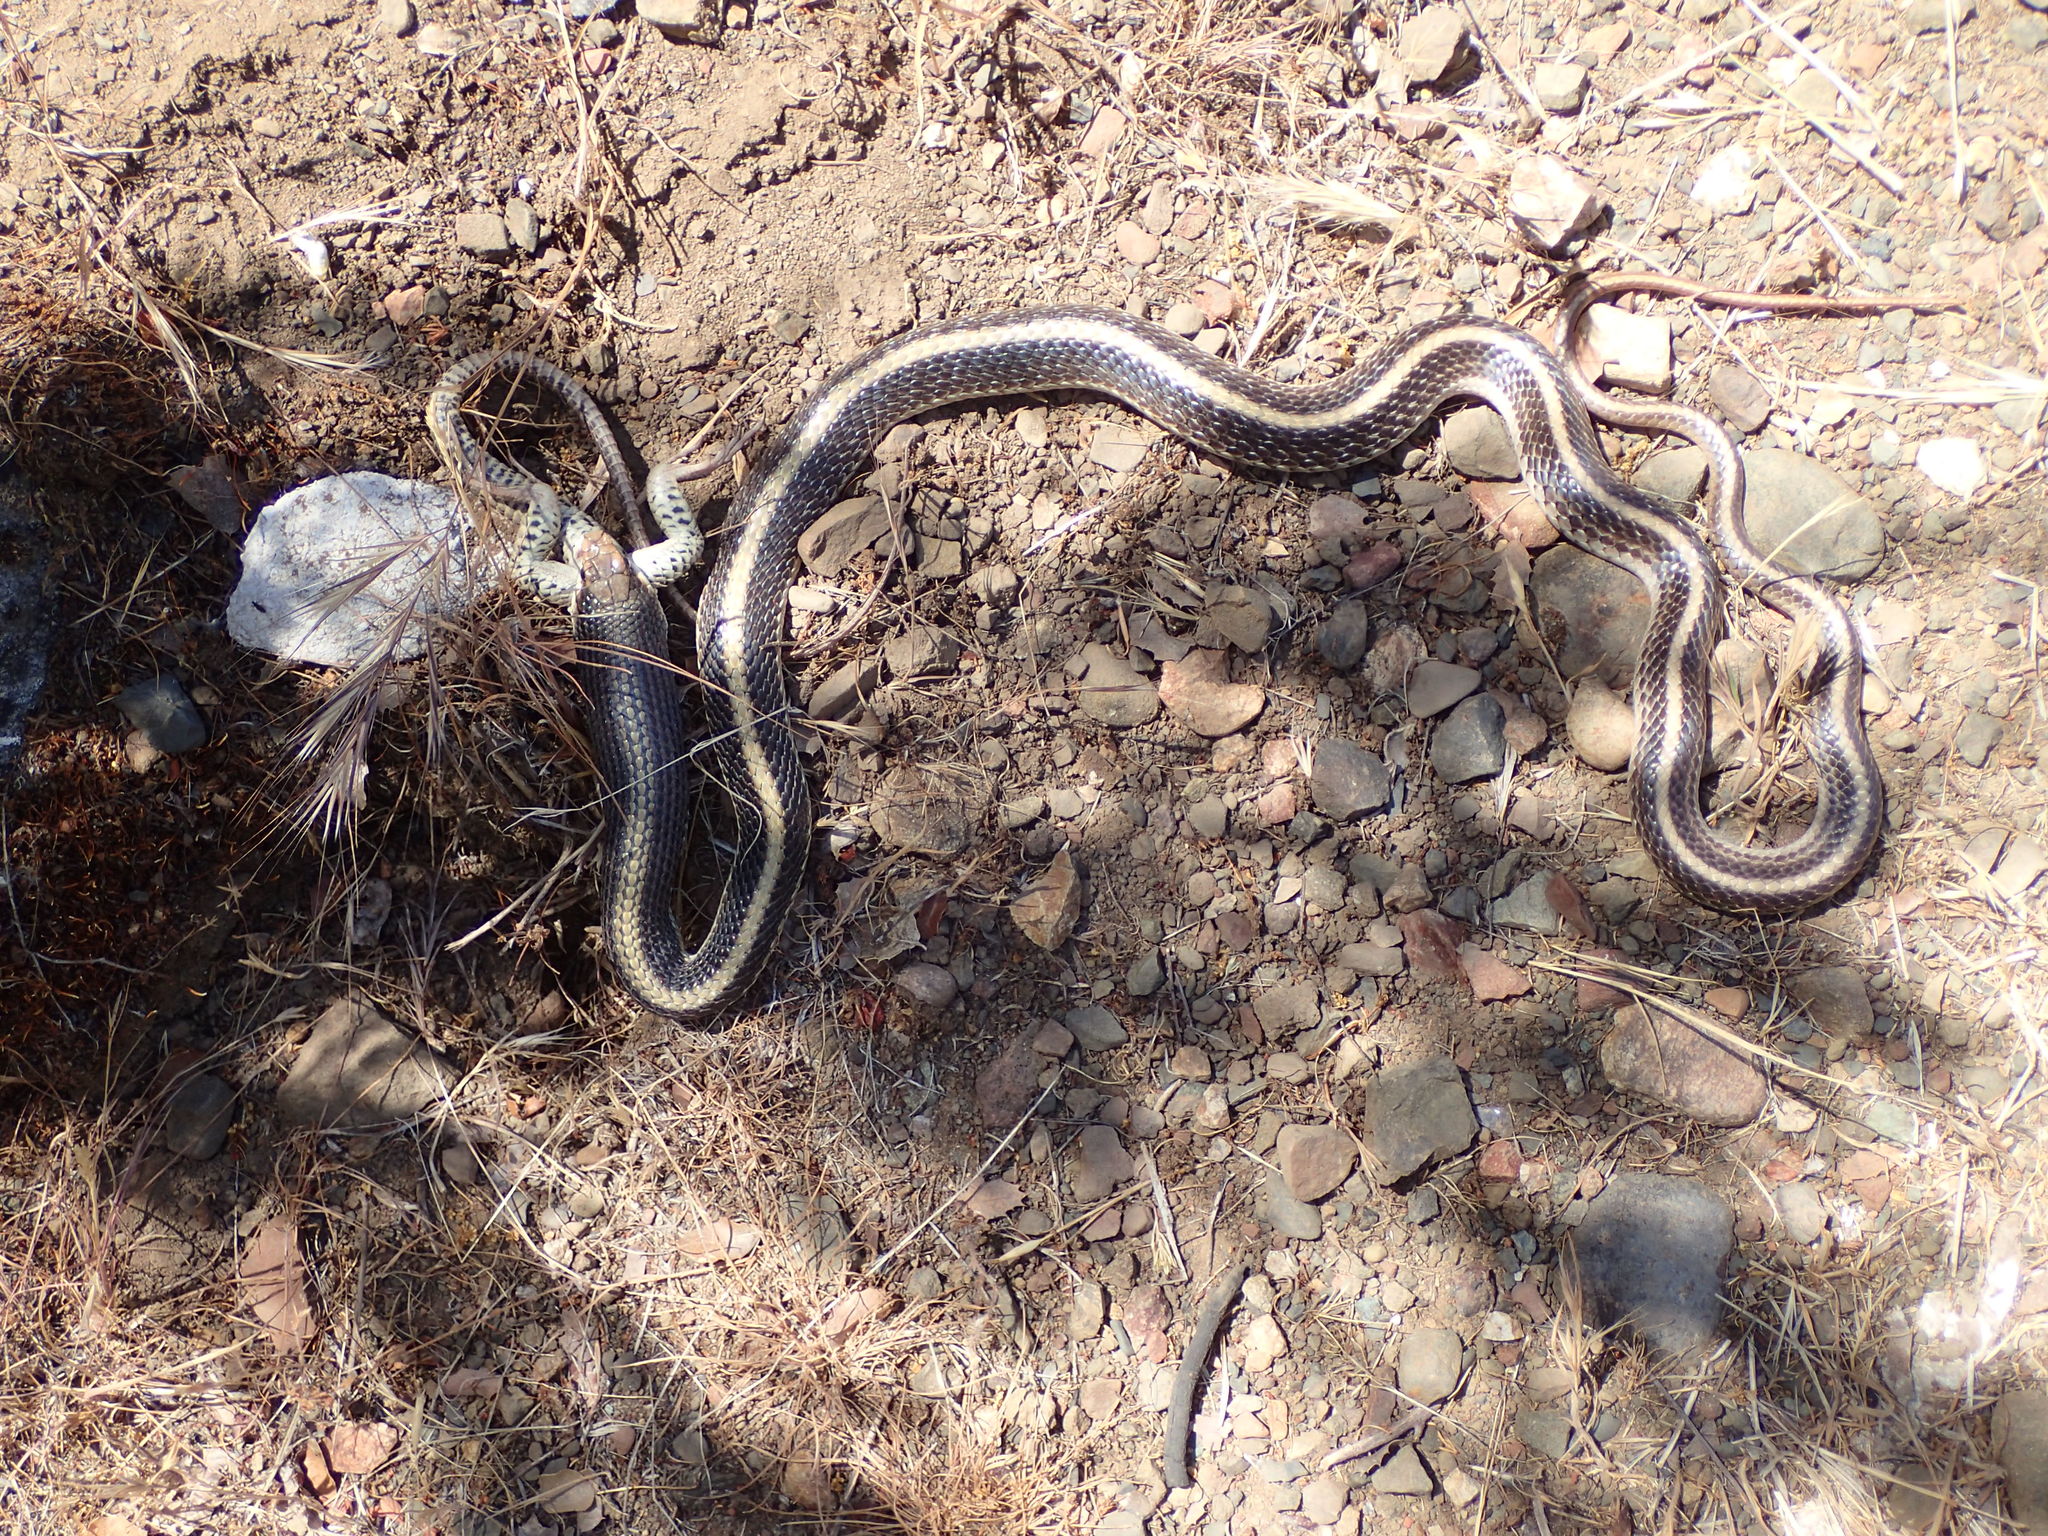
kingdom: Animalia
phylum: Chordata
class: Squamata
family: Colubridae
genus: Salvadora
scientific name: Salvadora hexalepis
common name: Western patchnose snake
